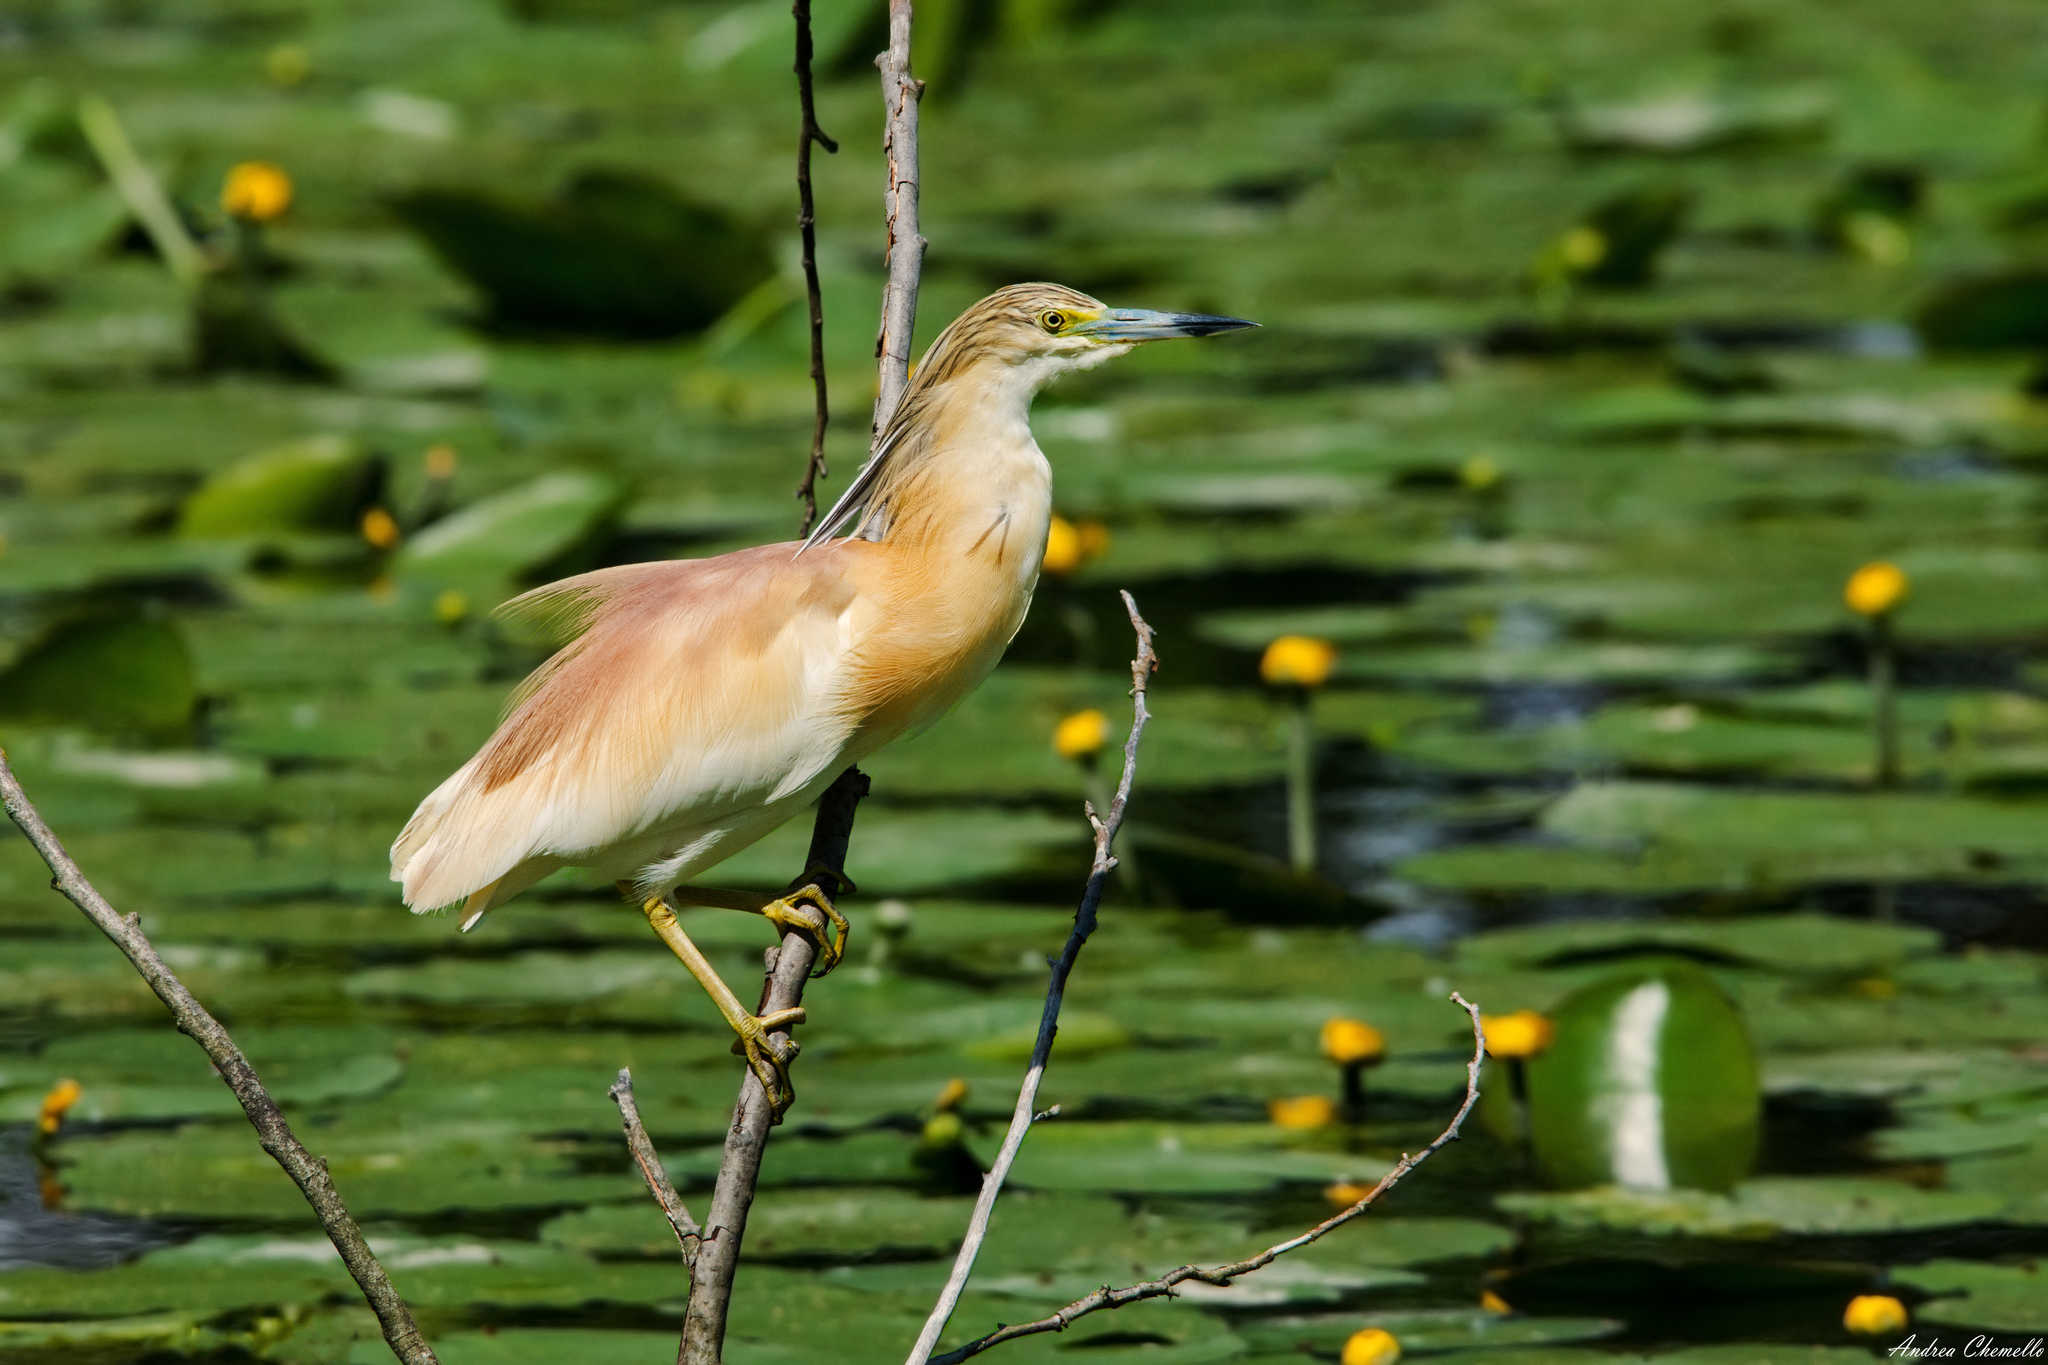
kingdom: Animalia
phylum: Chordata
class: Aves
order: Pelecaniformes
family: Ardeidae
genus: Ardeola
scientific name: Ardeola ralloides
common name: Squacco heron
